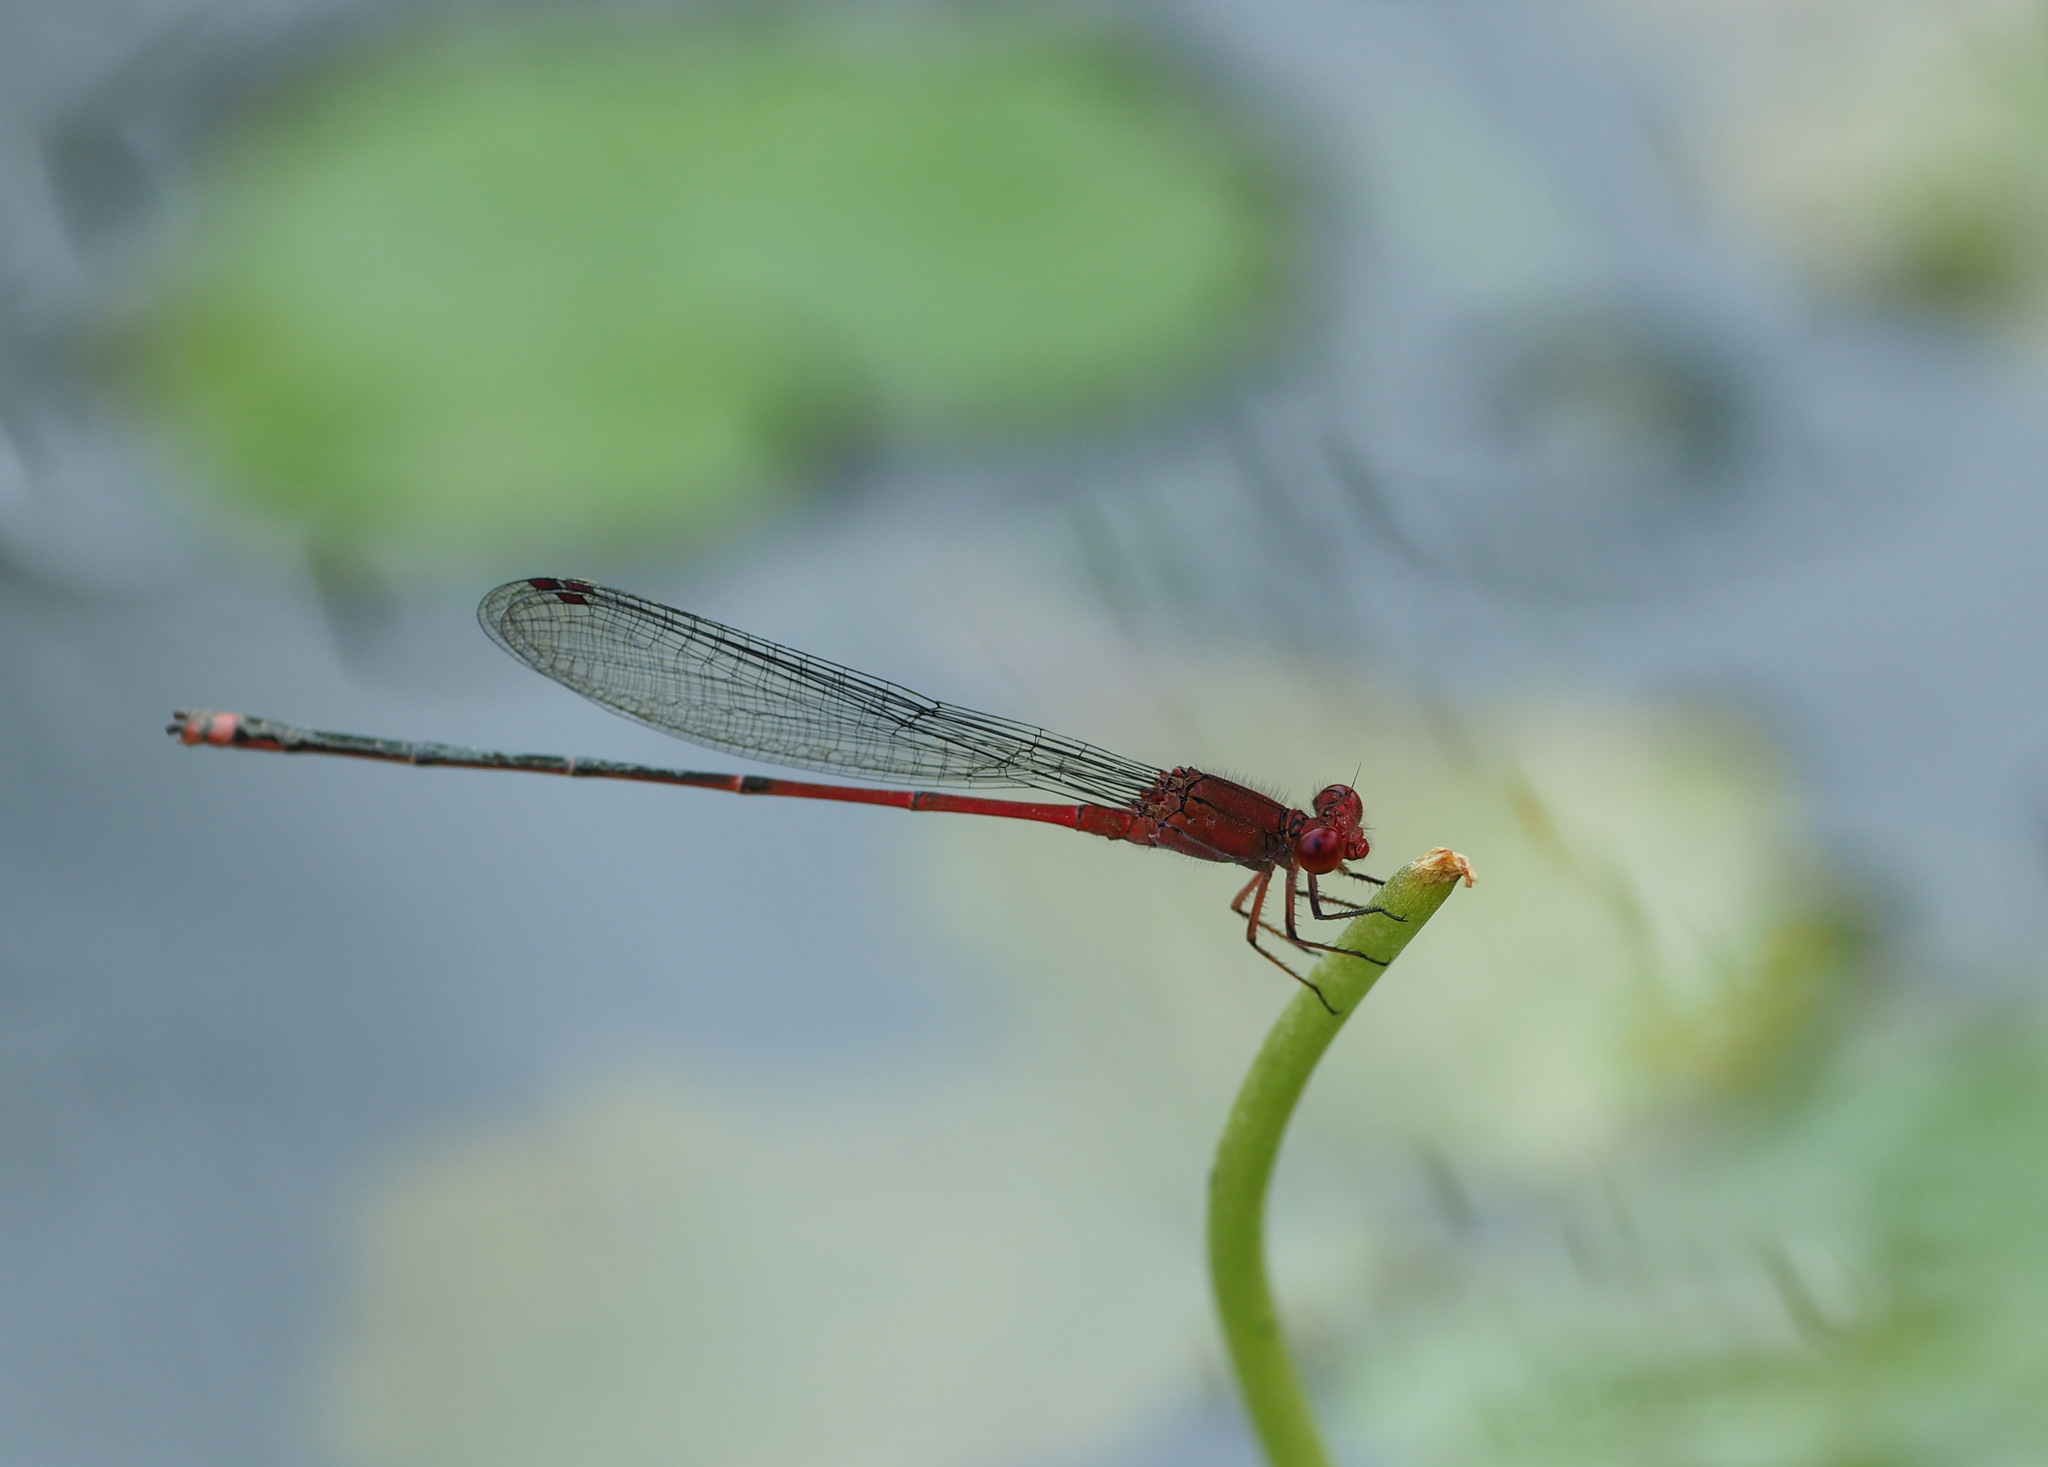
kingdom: Animalia
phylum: Arthropoda
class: Insecta
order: Odonata
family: Coenagrionidae
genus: Pseudagrion
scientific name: Pseudagrion pilidorsum
